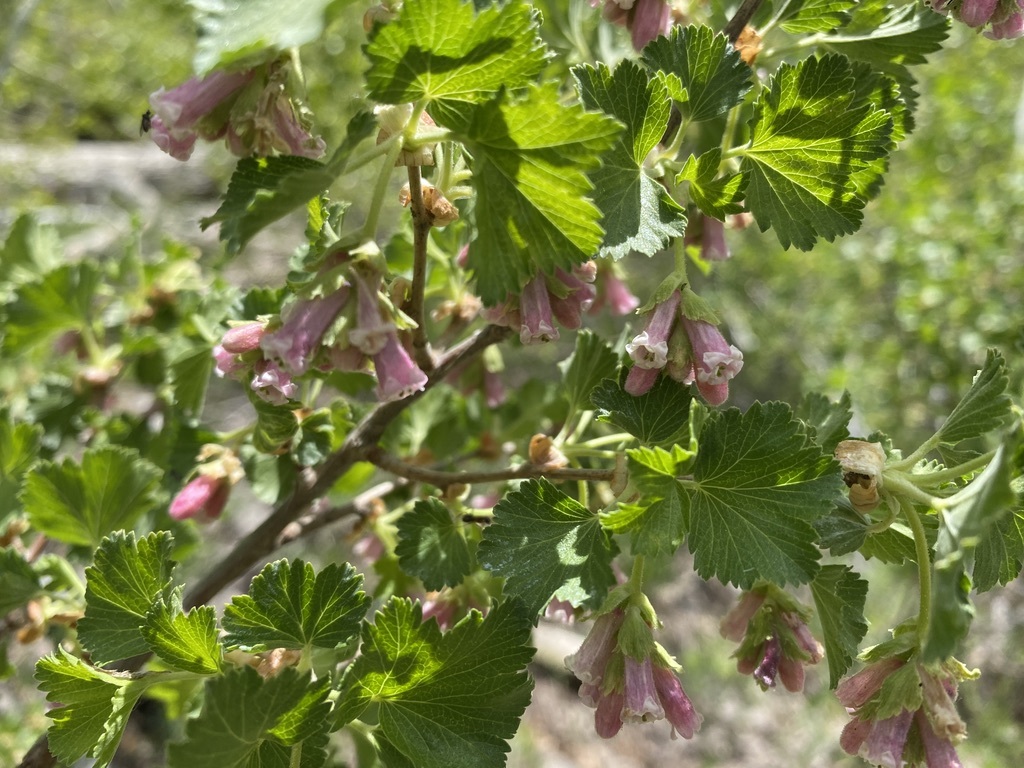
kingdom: Plantae
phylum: Tracheophyta
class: Magnoliopsida
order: Saxifragales
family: Grossulariaceae
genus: Ribes
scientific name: Ribes cereum
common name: Wax currant
